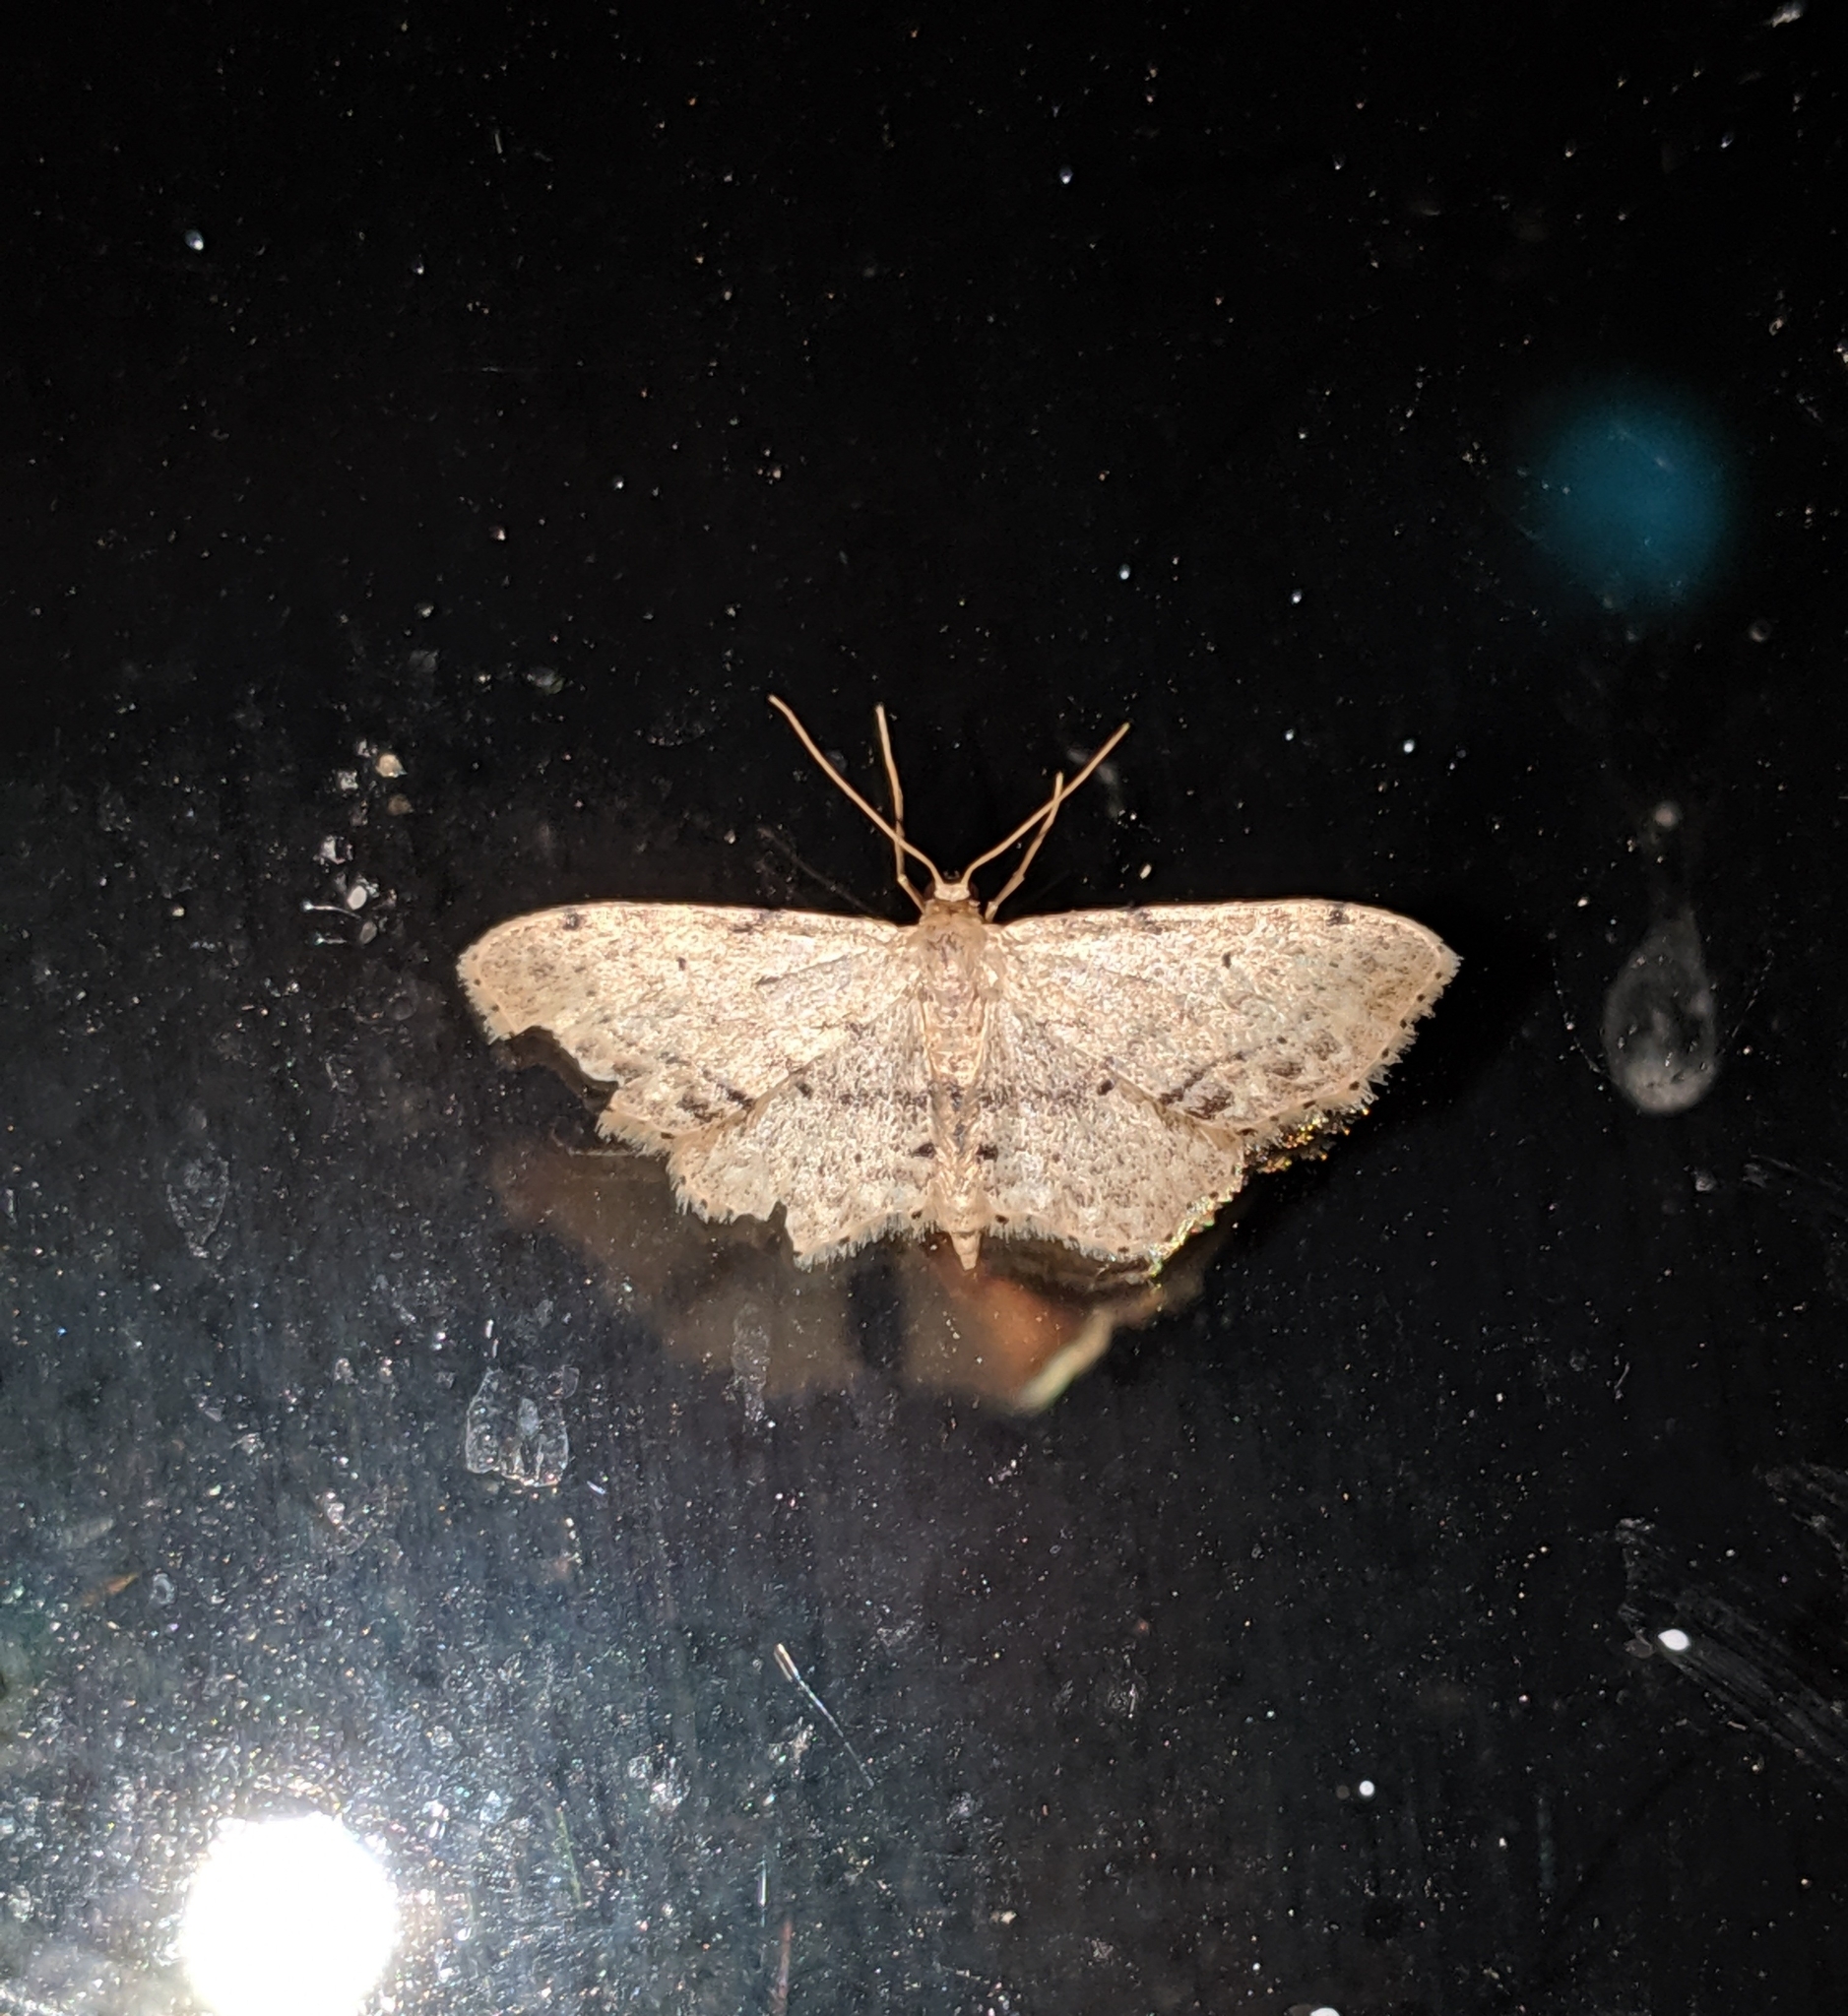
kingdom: Animalia
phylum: Arthropoda
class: Insecta
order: Lepidoptera
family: Geometridae
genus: Idaea
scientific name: Idaea dimidiata
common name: Single-dotted wave
